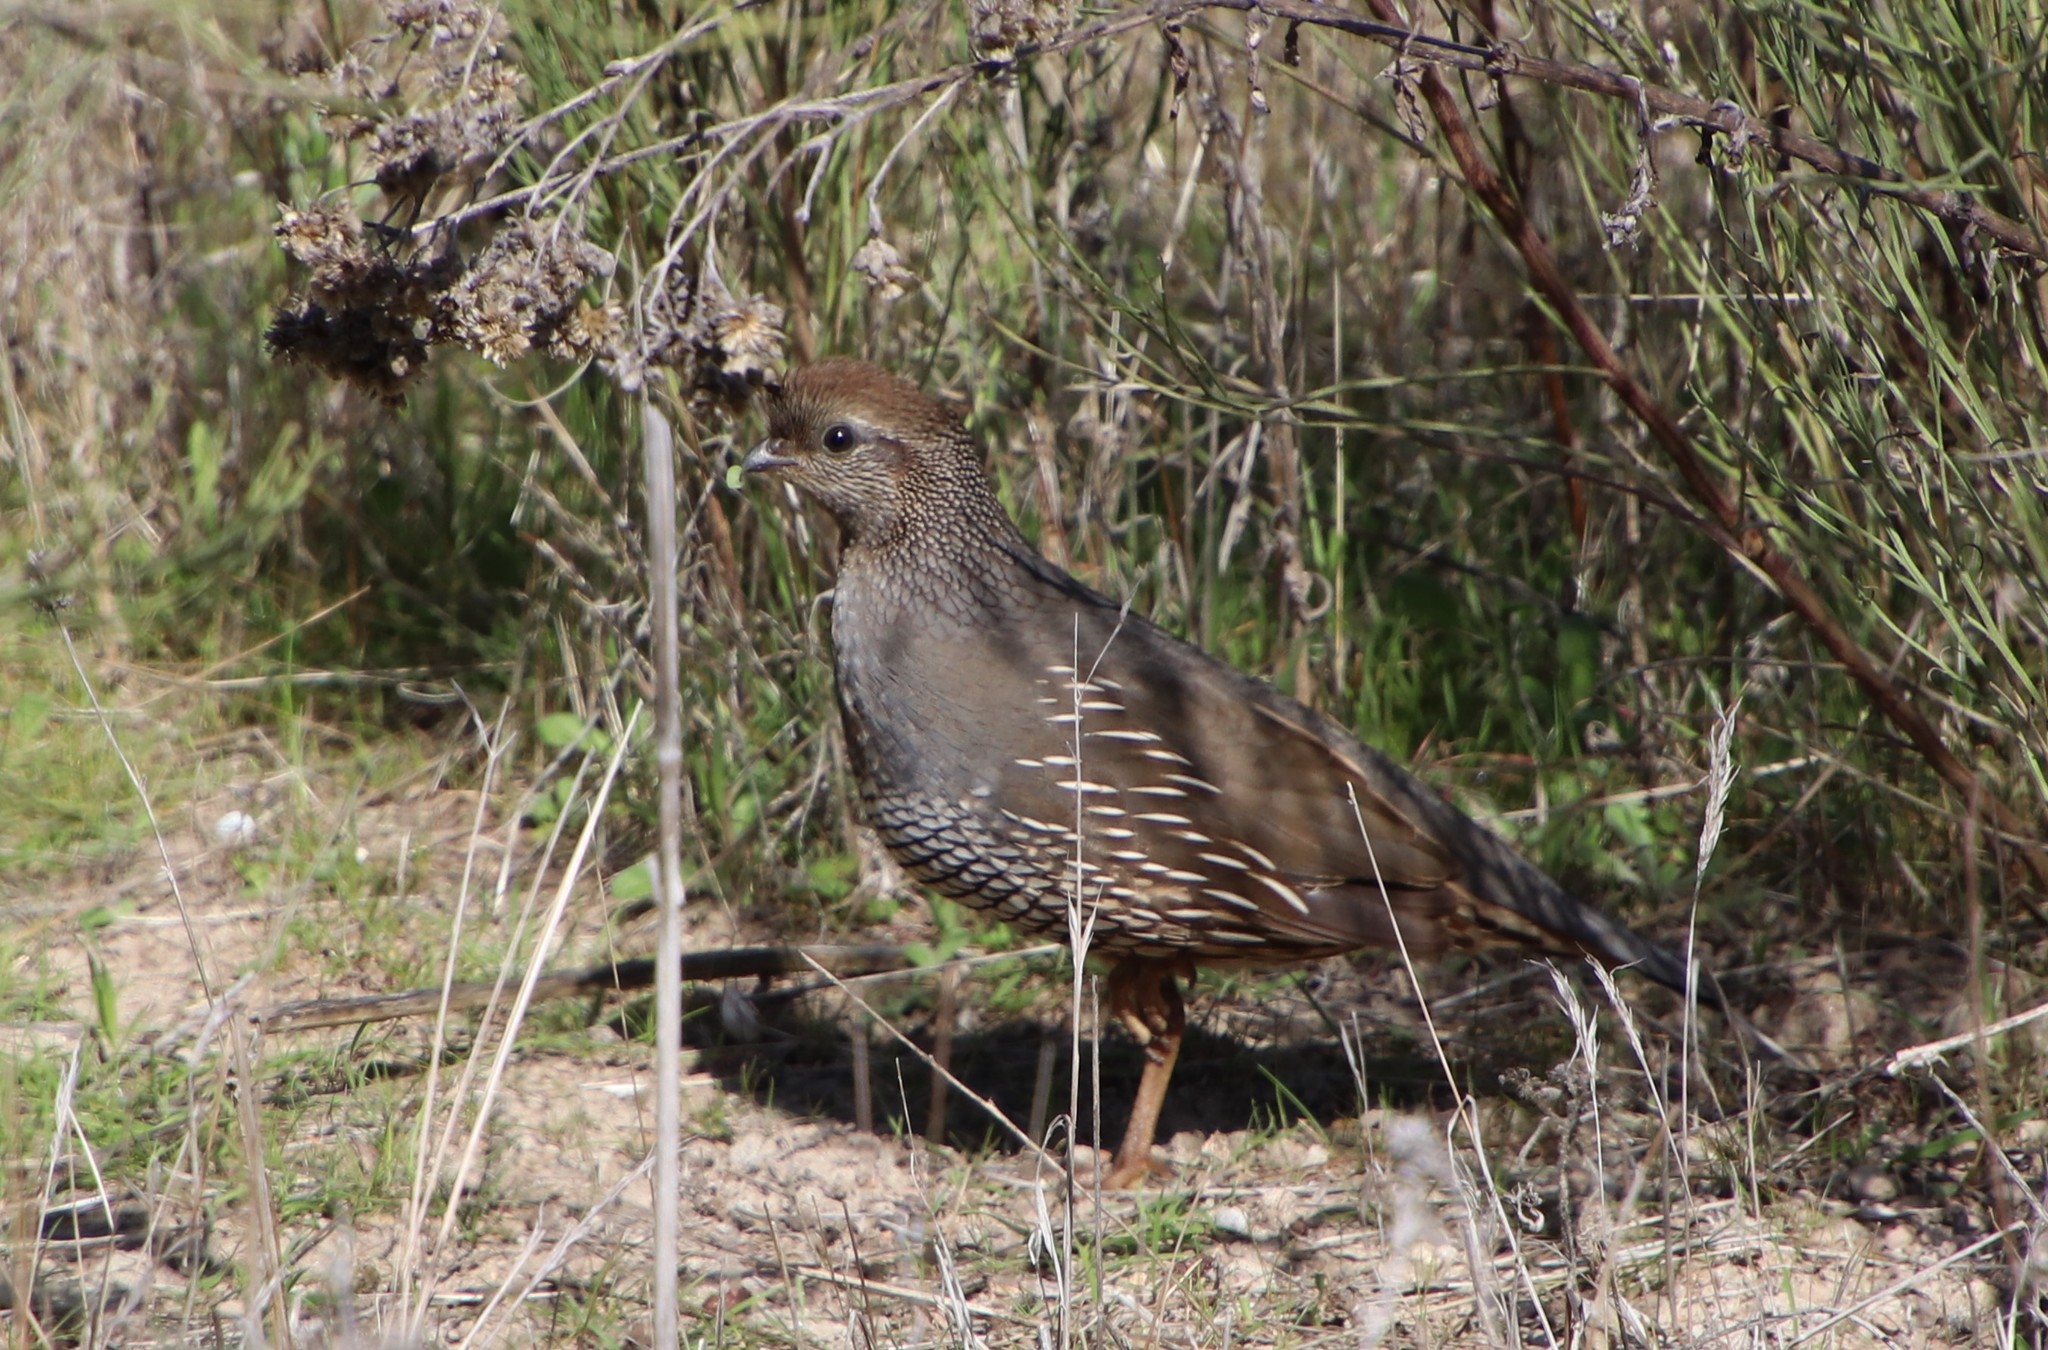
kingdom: Animalia
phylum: Chordata
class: Aves
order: Galliformes
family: Odontophoridae
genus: Callipepla
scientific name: Callipepla californica
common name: California quail
